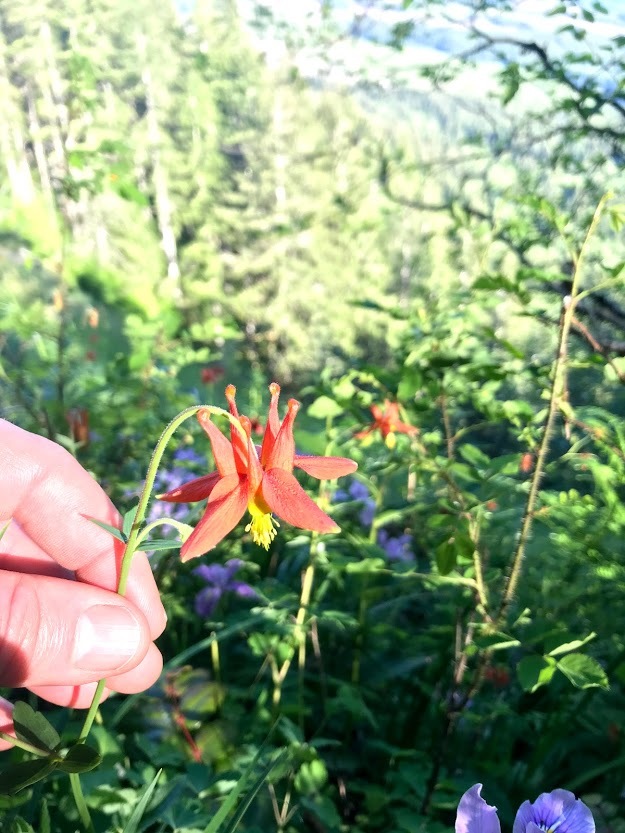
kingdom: Plantae
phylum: Tracheophyta
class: Magnoliopsida
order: Ranunculales
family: Ranunculaceae
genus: Aquilegia
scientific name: Aquilegia formosa
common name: Sitka columbine
